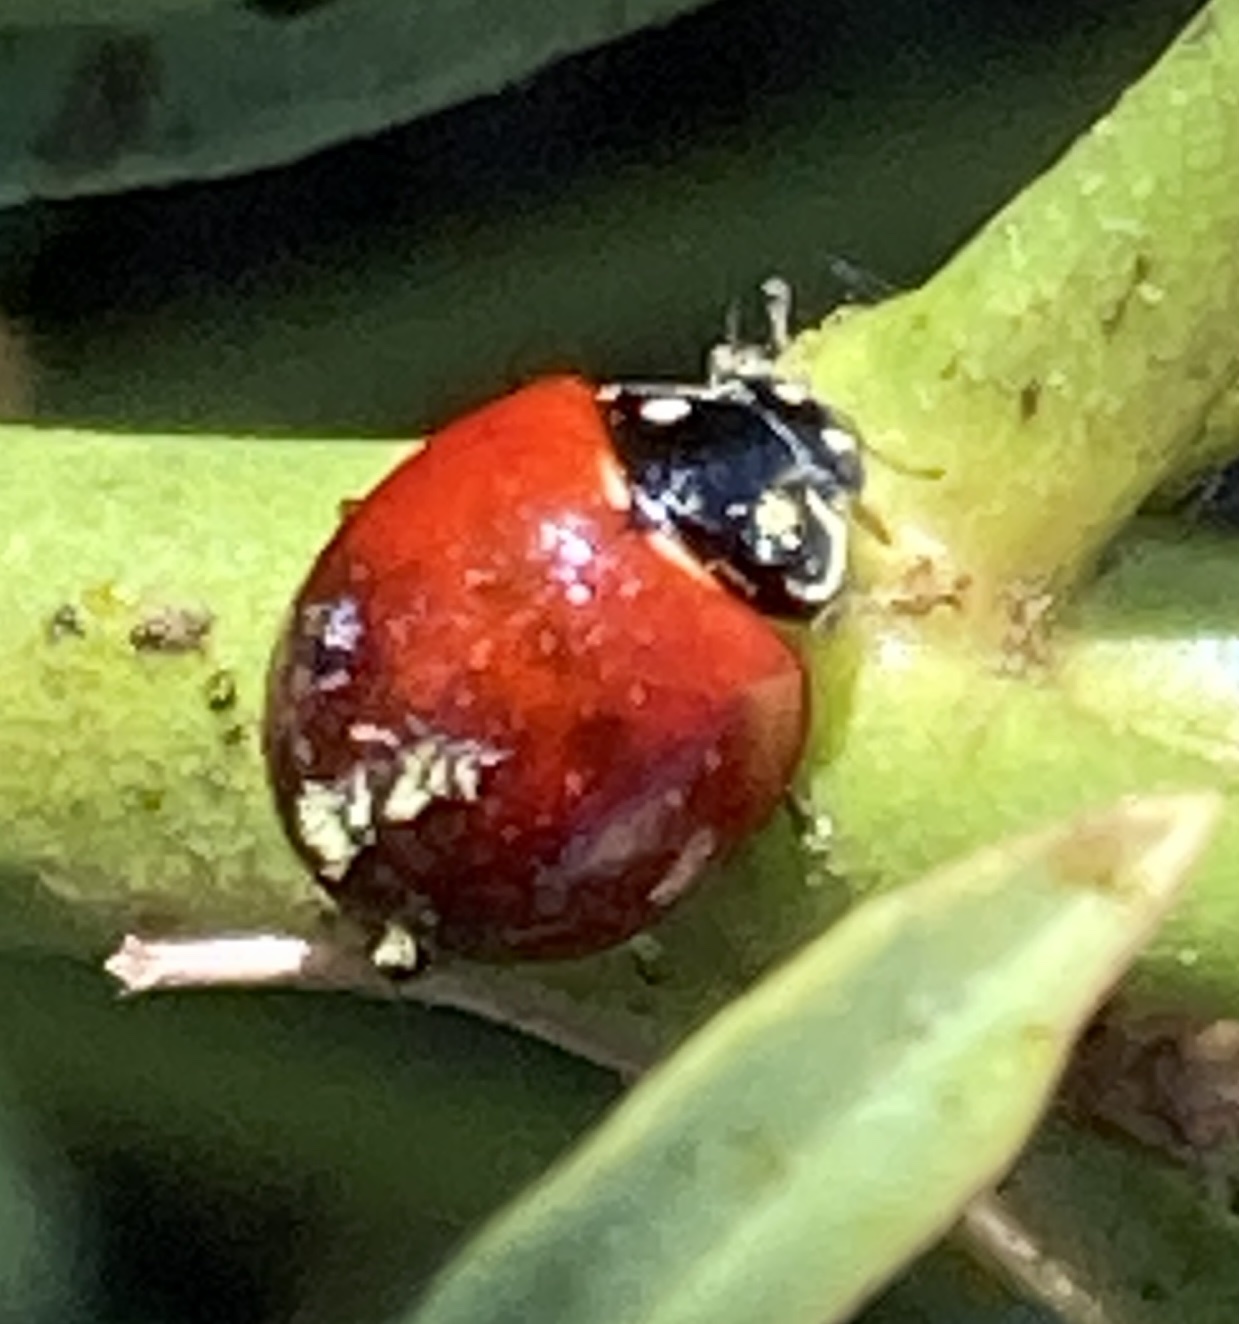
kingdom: Animalia
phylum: Arthropoda
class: Insecta
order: Coleoptera
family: Coccinellidae
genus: Cycloneda
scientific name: Cycloneda sanguinea
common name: Ladybird beetle
